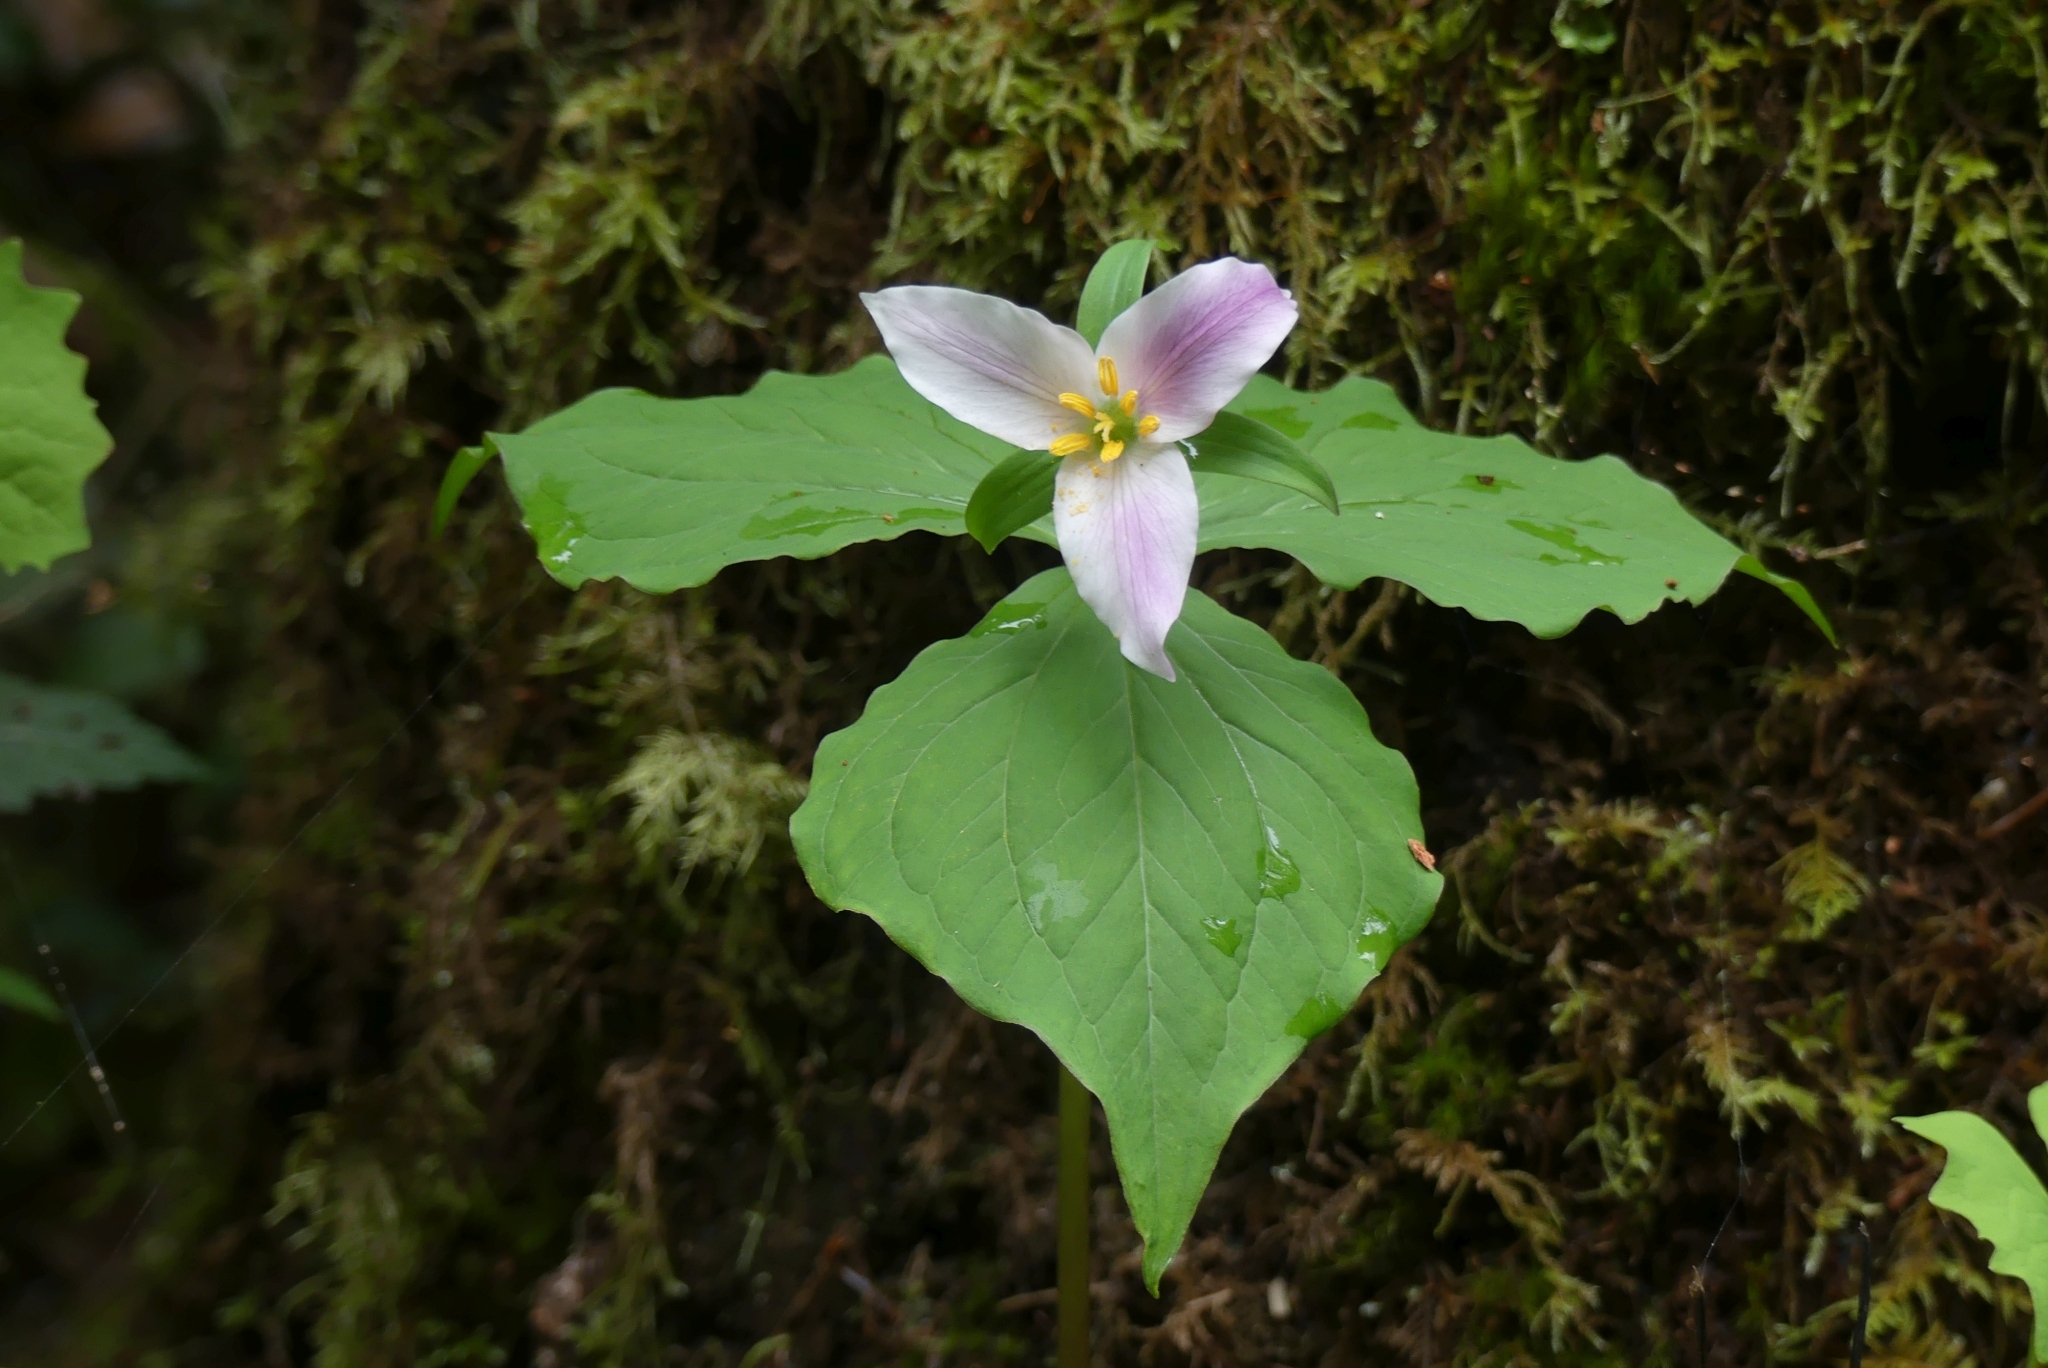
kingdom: Plantae
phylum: Tracheophyta
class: Liliopsida
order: Liliales
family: Melanthiaceae
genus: Trillium
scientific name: Trillium ovatum
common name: Pacific trillium
